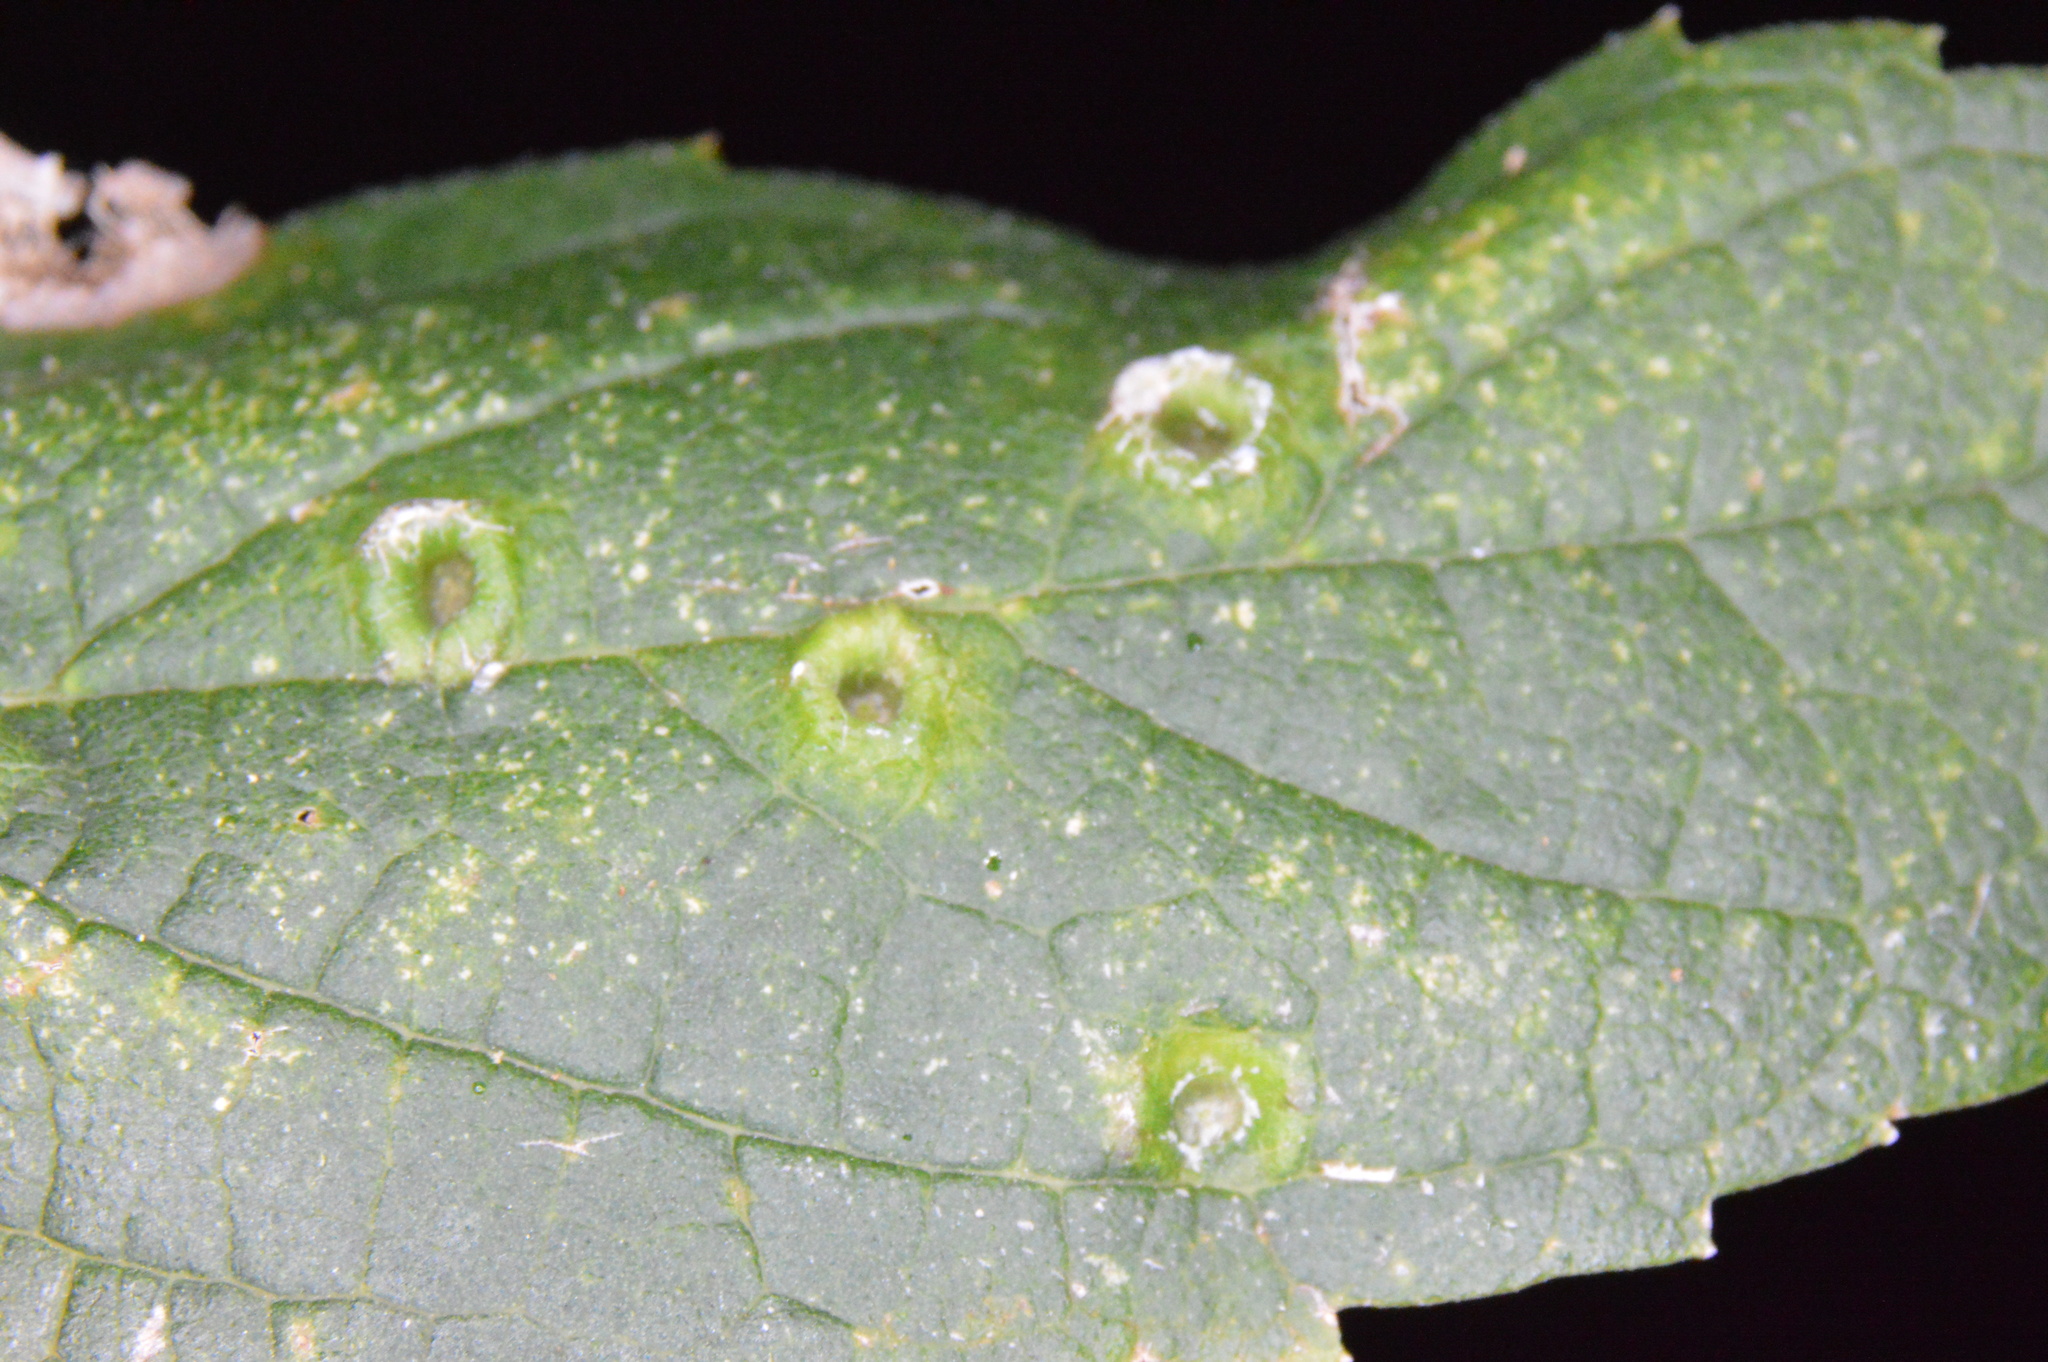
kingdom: Animalia
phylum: Arthropoda
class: Insecta
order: Hemiptera
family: Aphalaridae
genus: Pachypsylla
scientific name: Pachypsylla celtidismamma
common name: Hackberry nipplegall psyllid
